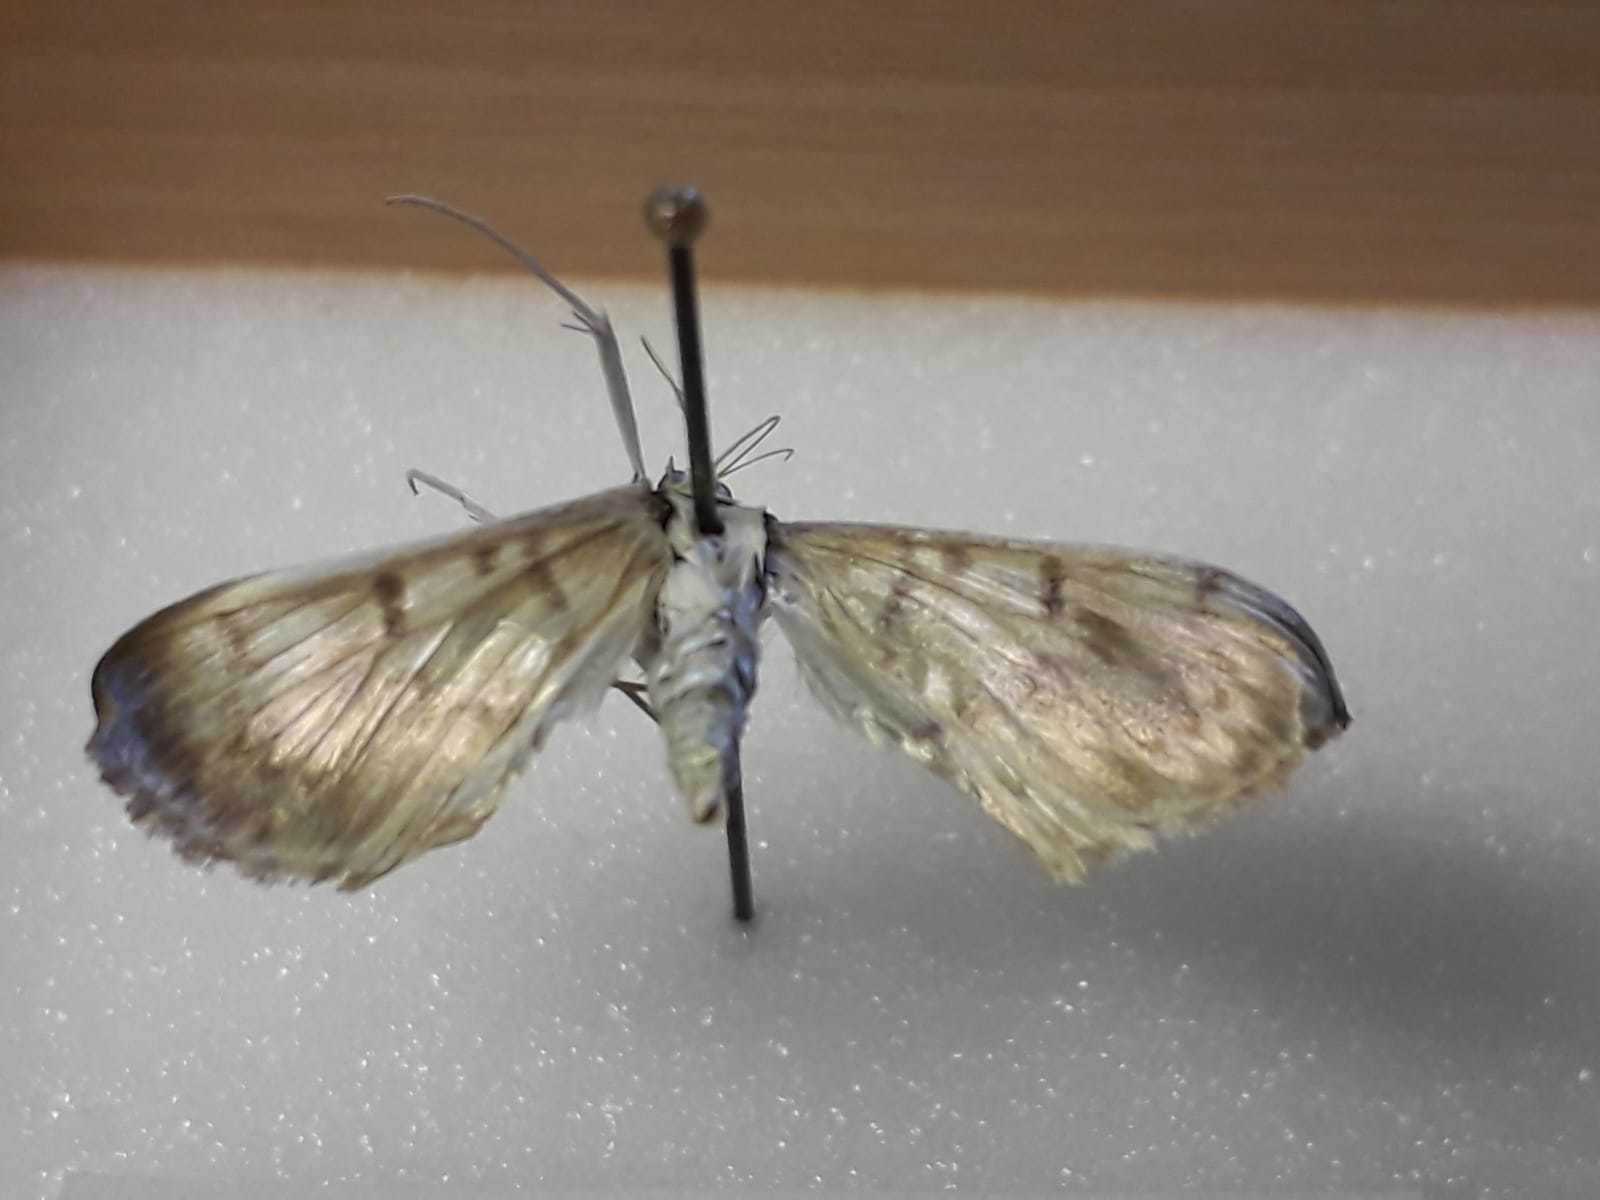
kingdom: Animalia
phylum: Arthropoda
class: Insecta
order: Lepidoptera
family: Crambidae
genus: Patania
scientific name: Patania ruralis
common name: Mother of pearl
